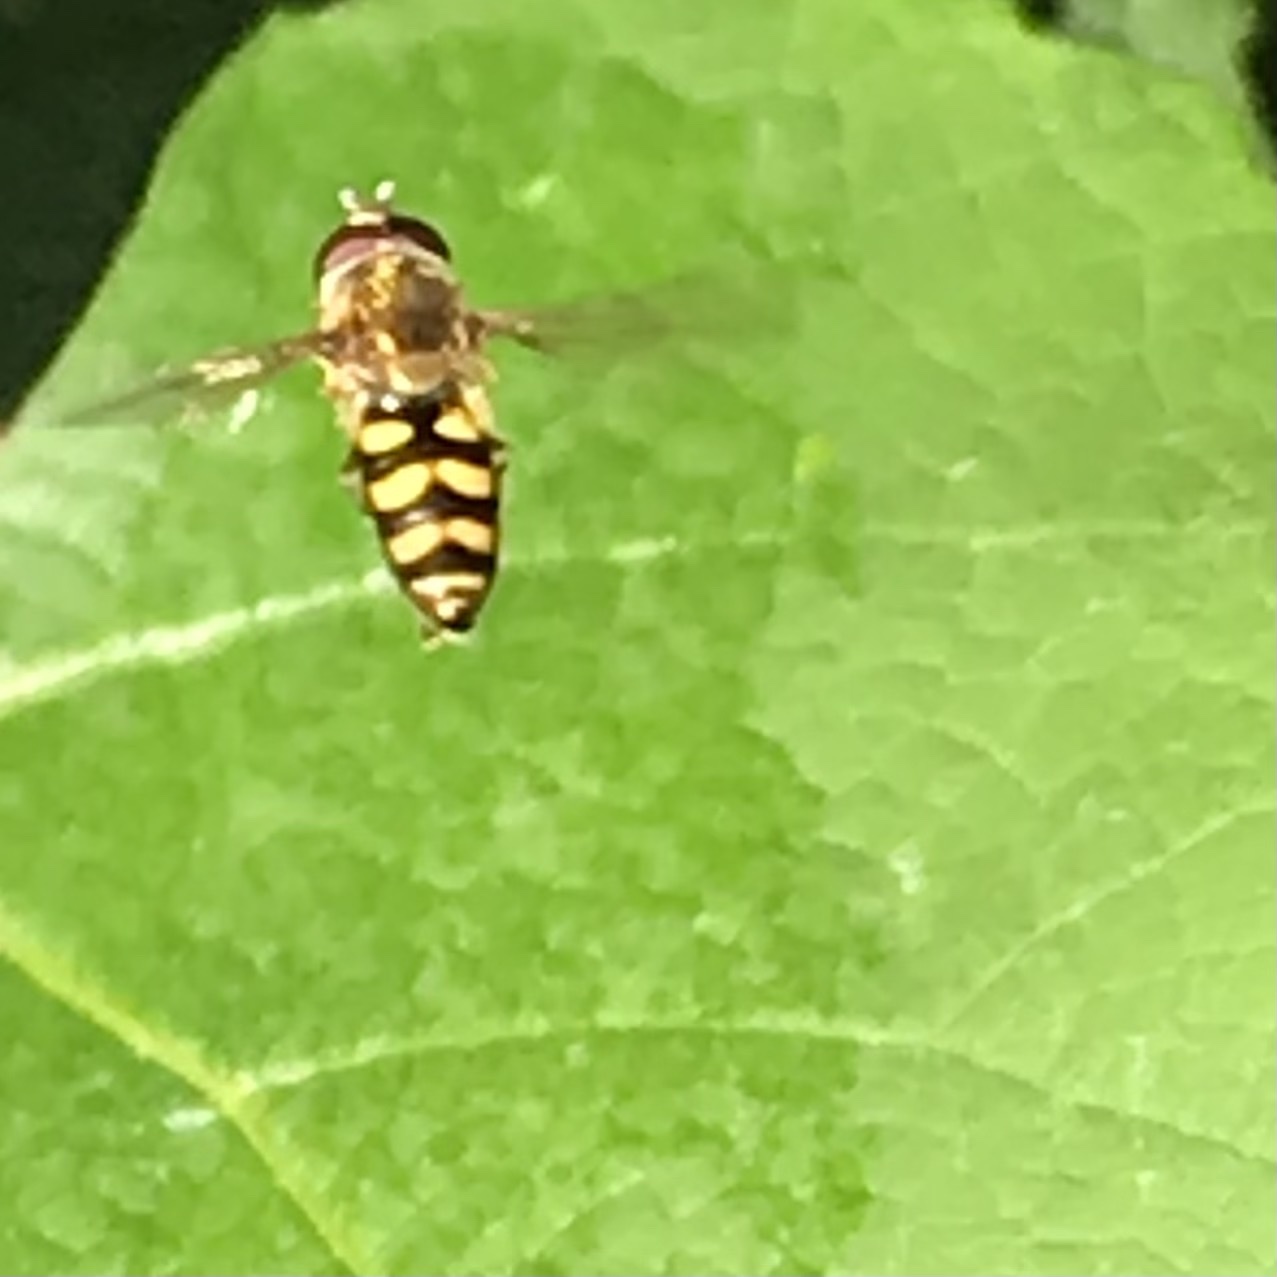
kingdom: Animalia
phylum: Arthropoda
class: Insecta
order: Diptera
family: Syrphidae
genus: Eupeodes
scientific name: Eupeodes fumipennis
